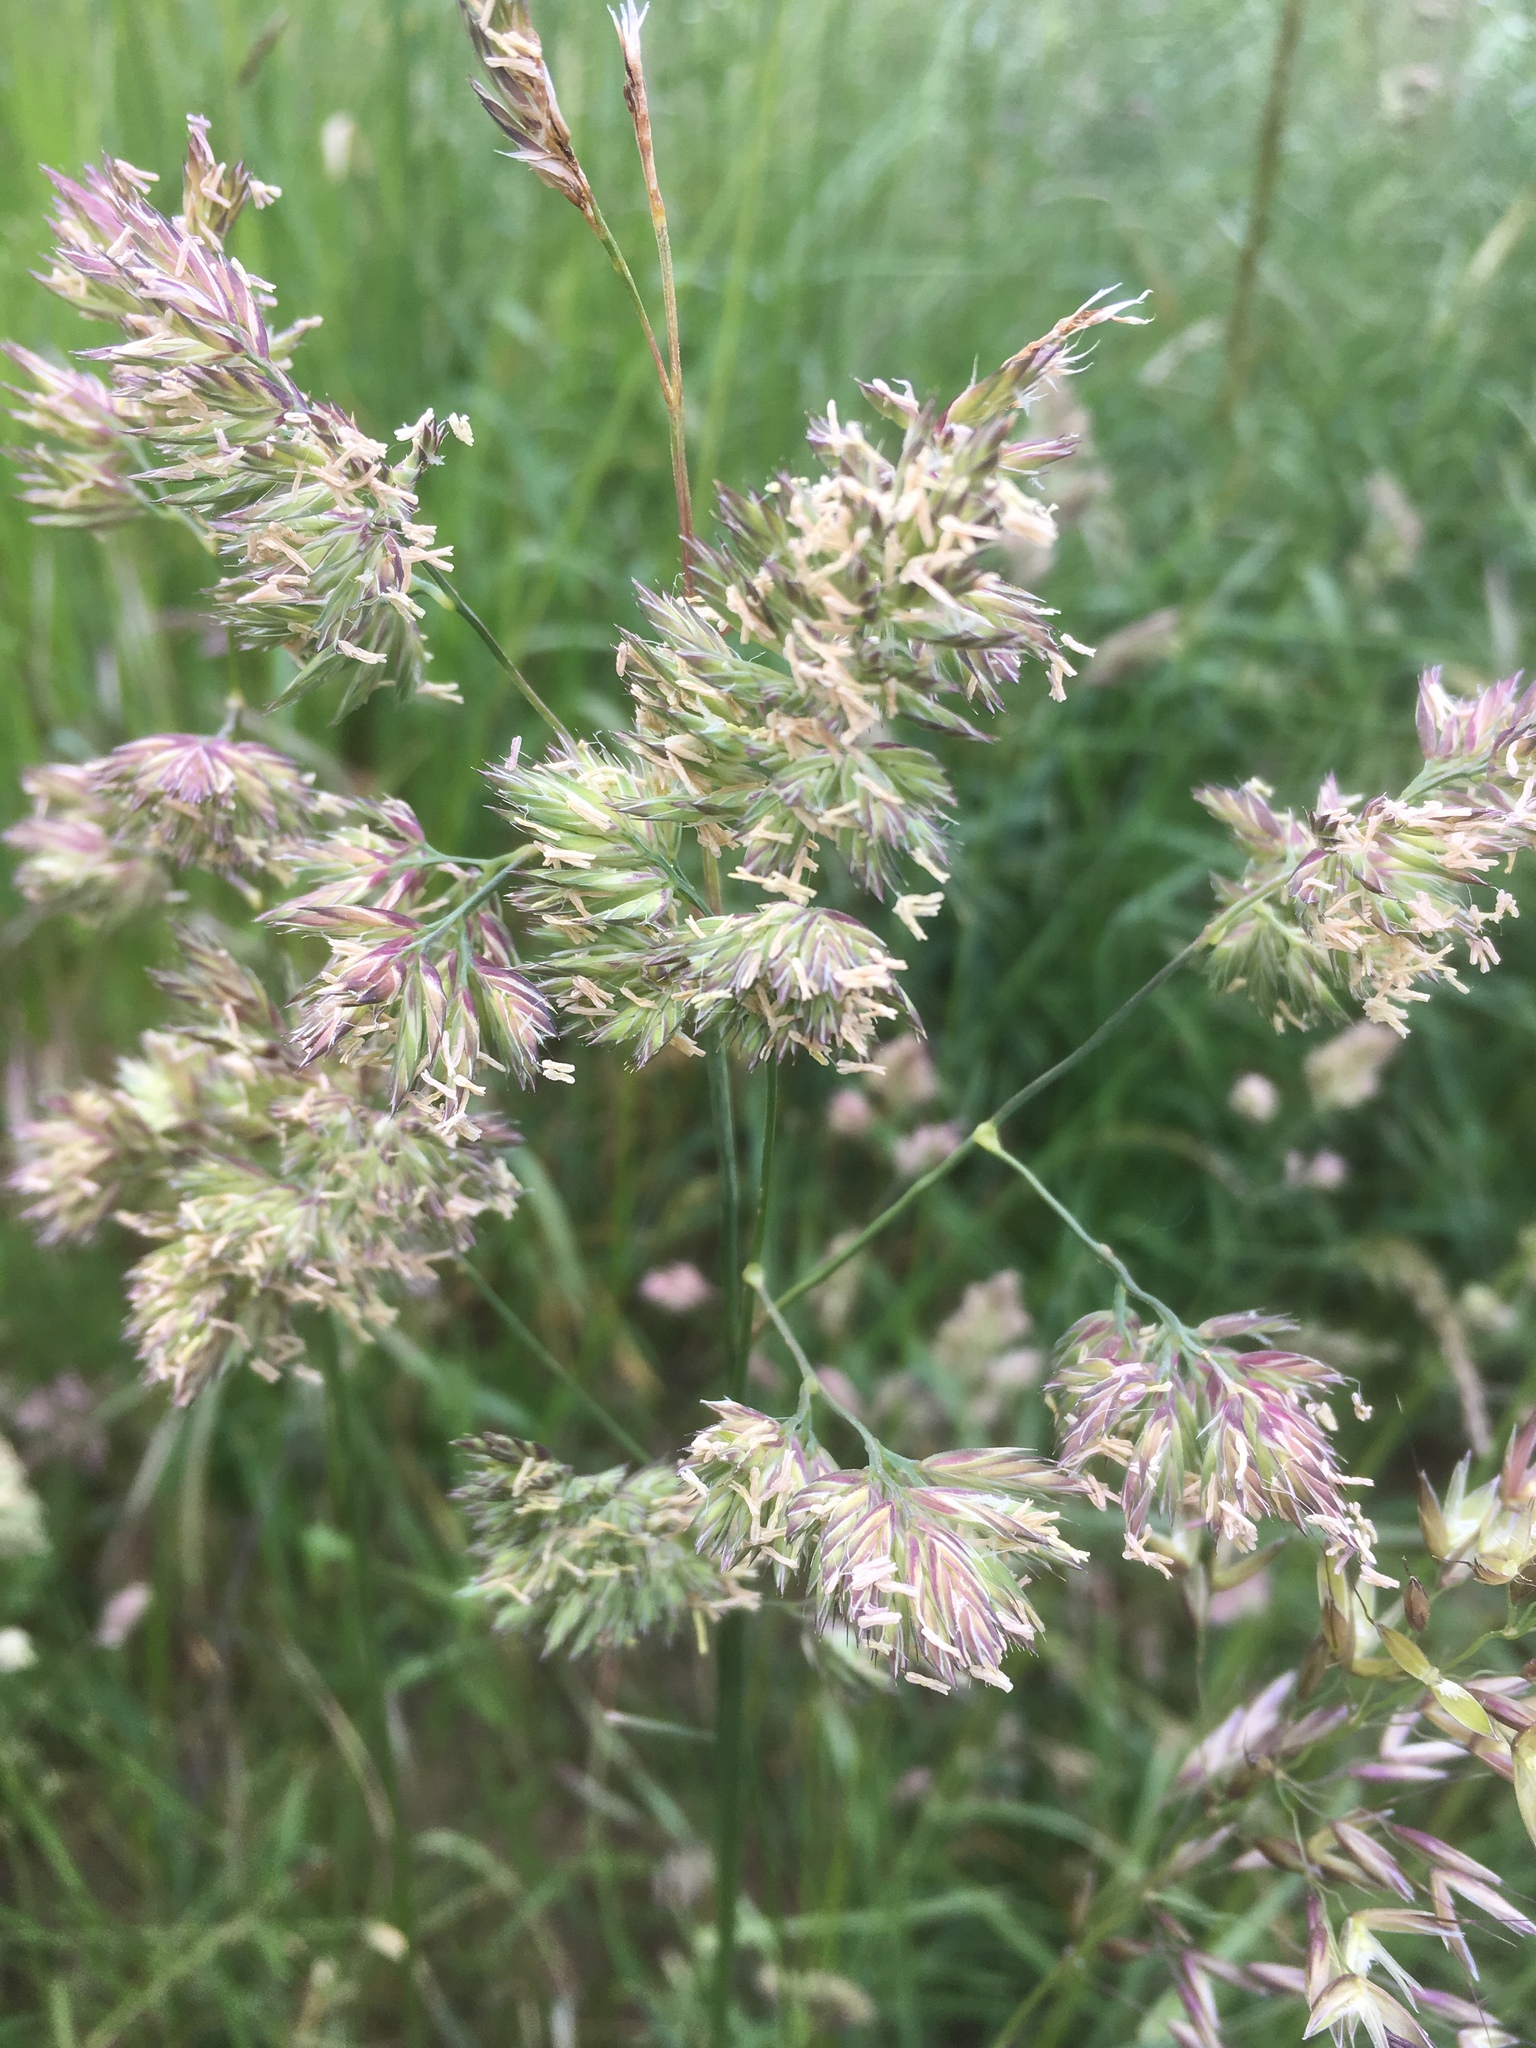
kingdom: Plantae
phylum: Tracheophyta
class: Liliopsida
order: Poales
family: Poaceae
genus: Dactylis
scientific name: Dactylis glomerata
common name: Orchardgrass
